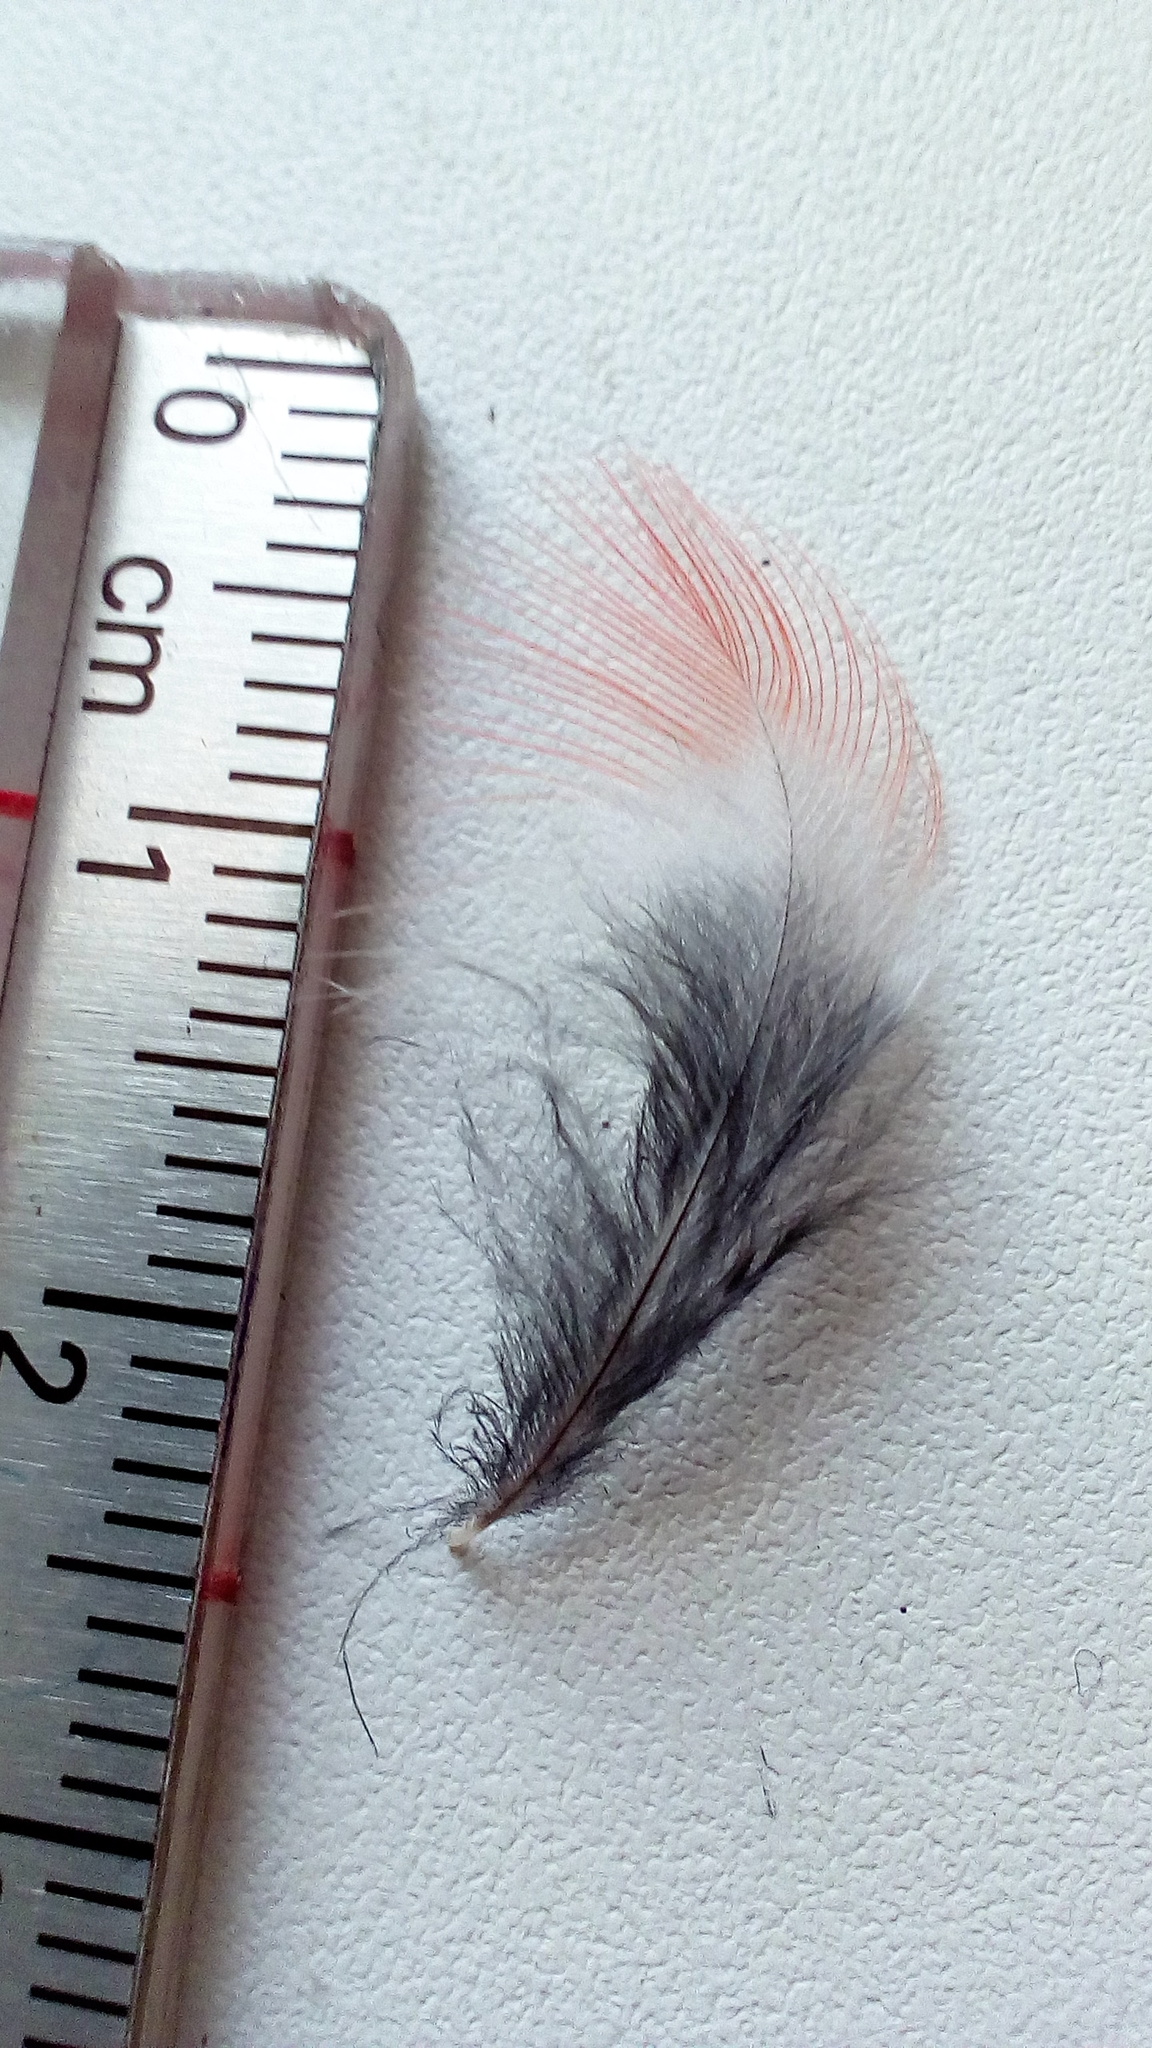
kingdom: Animalia
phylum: Chordata
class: Aves
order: Piciformes
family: Picidae
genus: Dendrocopos
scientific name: Dendrocopos major
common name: Great spotted woodpecker
